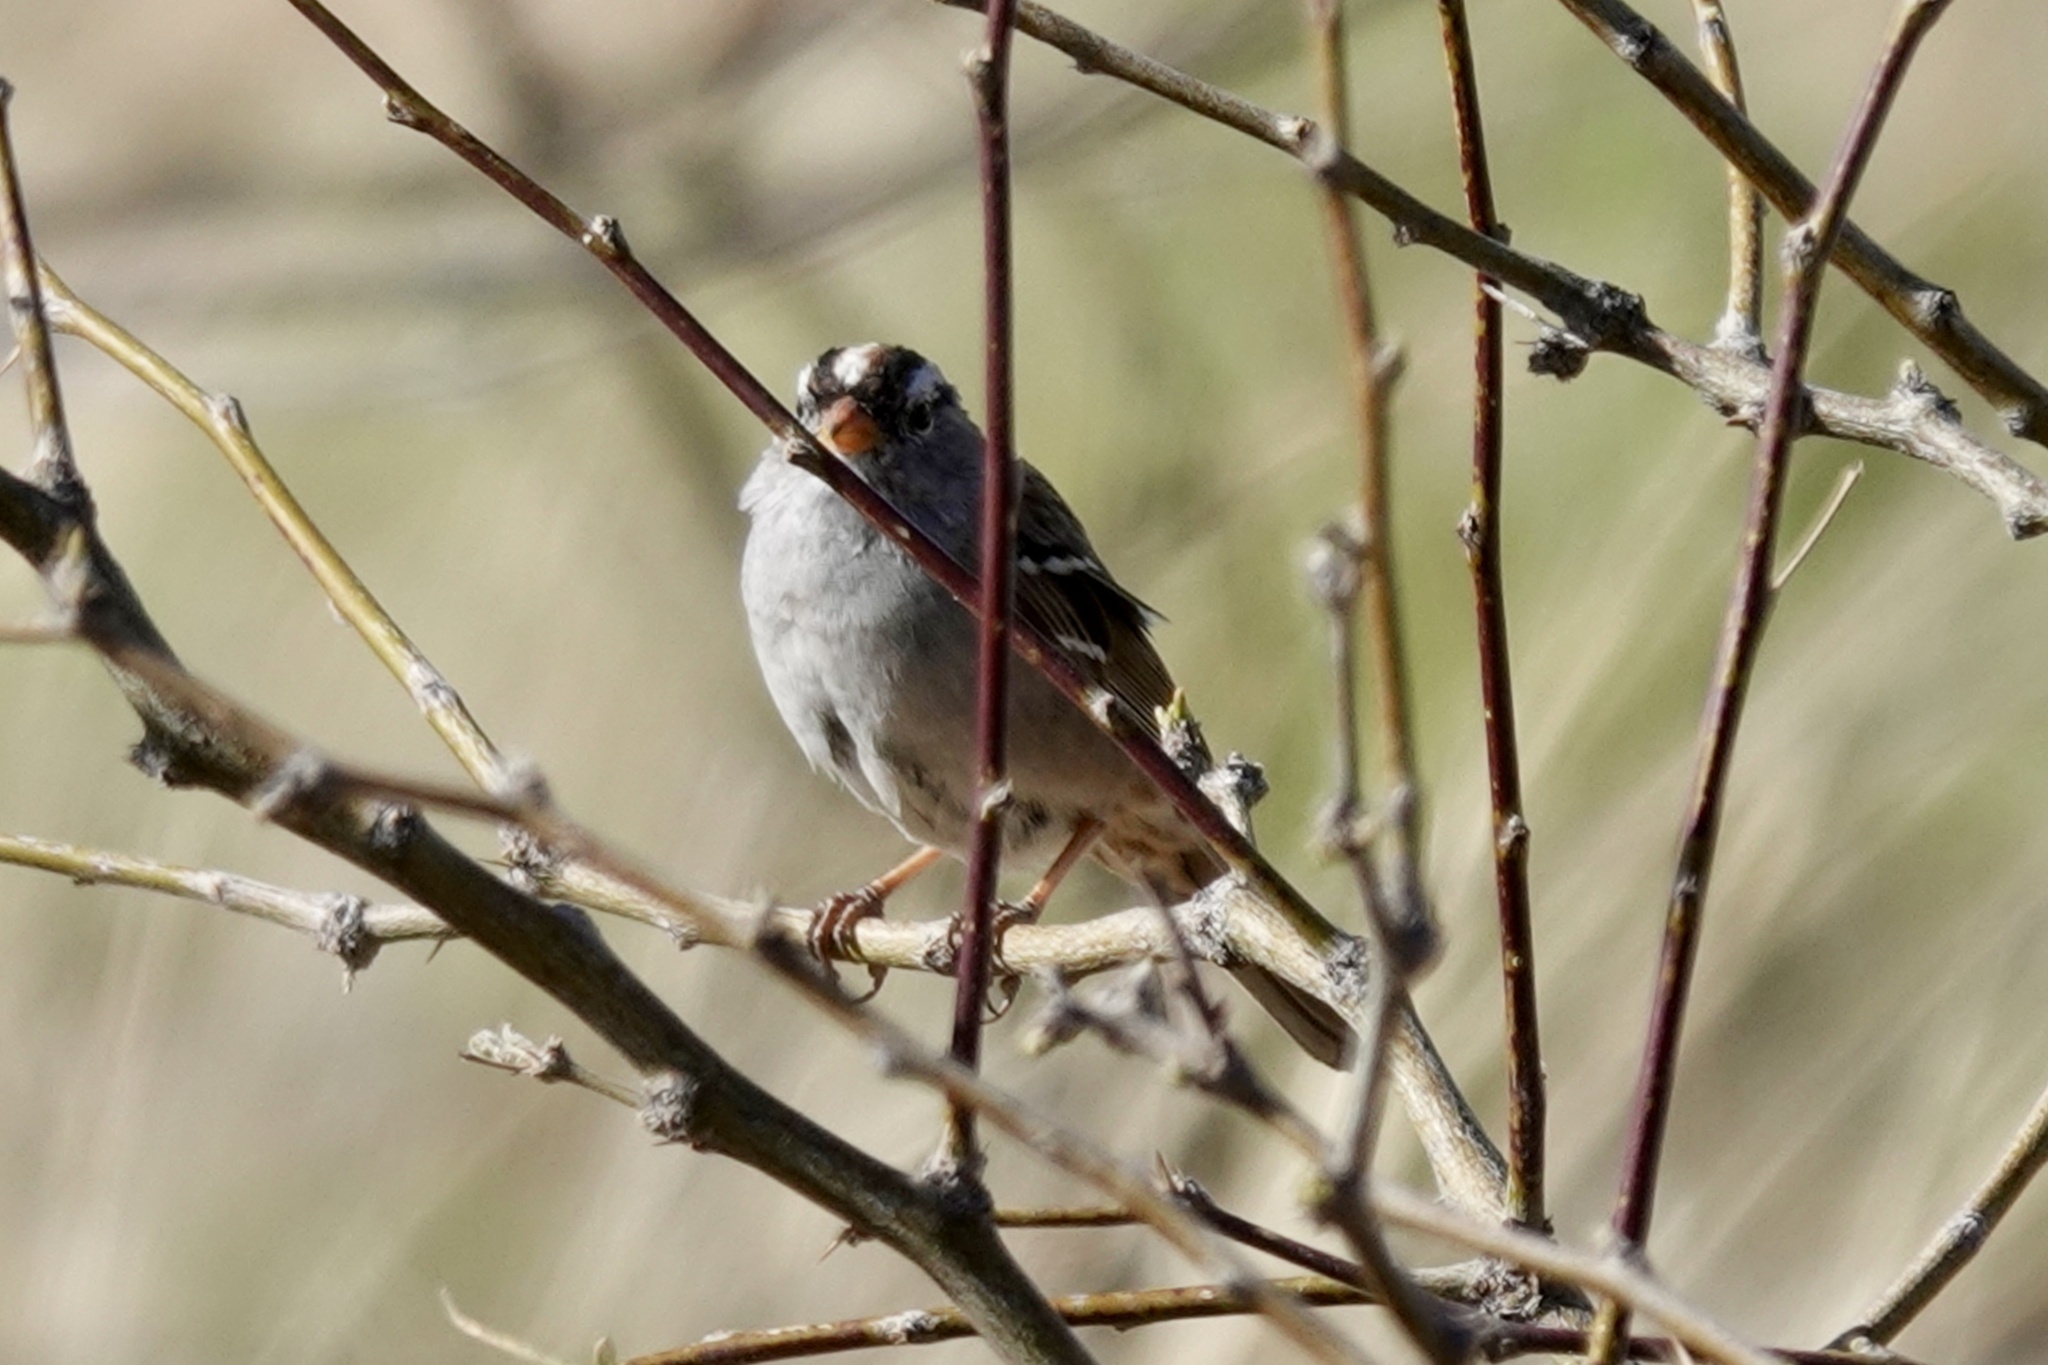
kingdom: Animalia
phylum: Chordata
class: Aves
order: Passeriformes
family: Passerellidae
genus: Zonotrichia
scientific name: Zonotrichia leucophrys
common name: White-crowned sparrow
